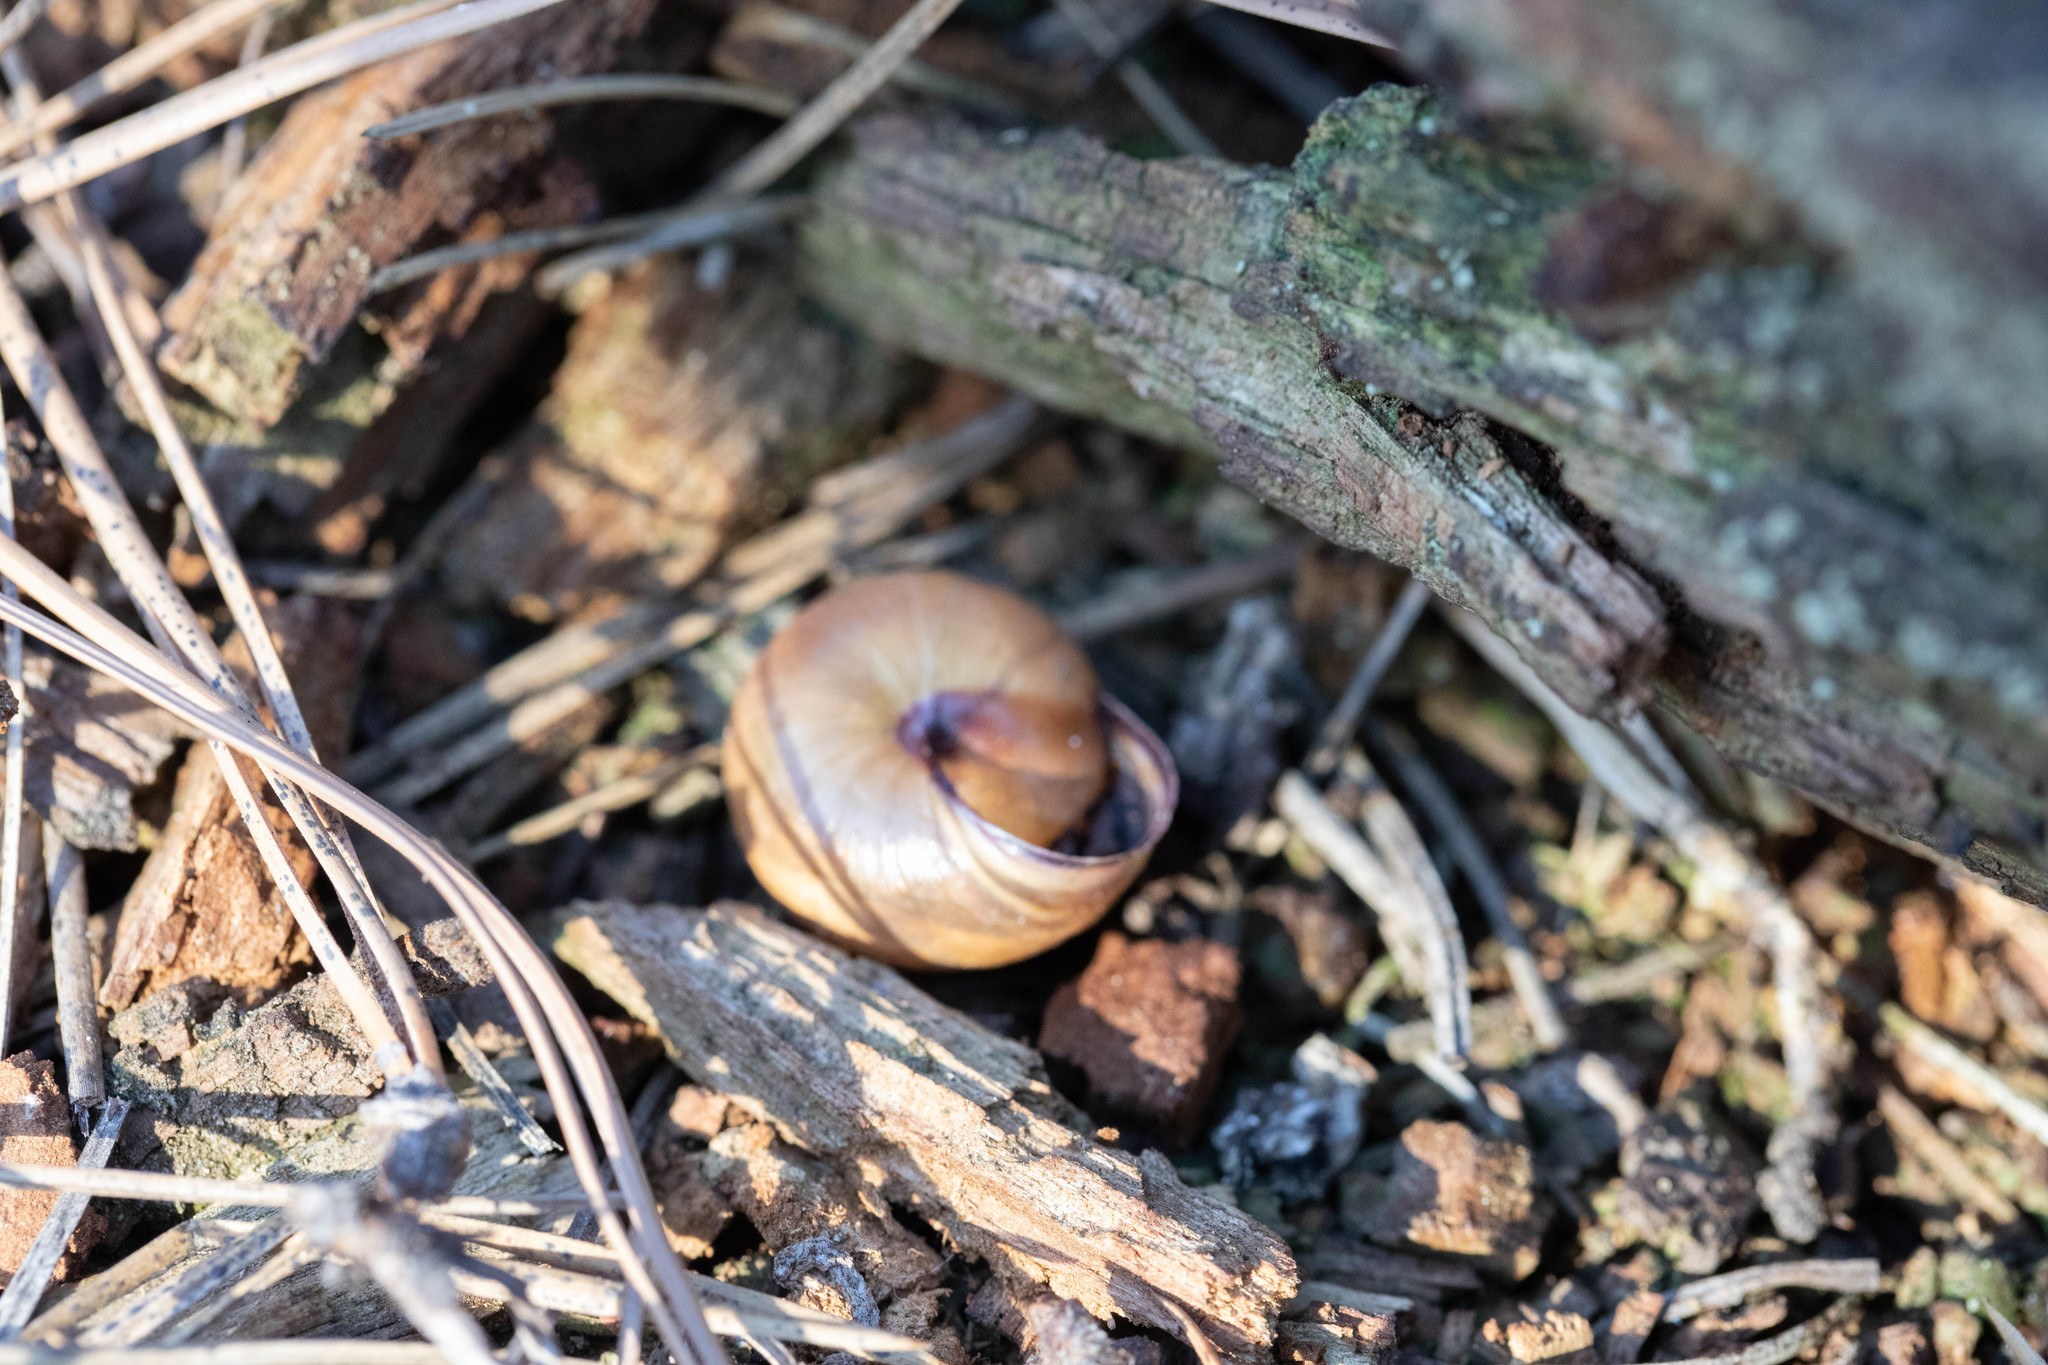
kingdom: Animalia
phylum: Mollusca
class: Gastropoda
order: Stylommatophora
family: Helicidae
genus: Cepaea
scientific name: Cepaea nemoralis
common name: Grovesnail
